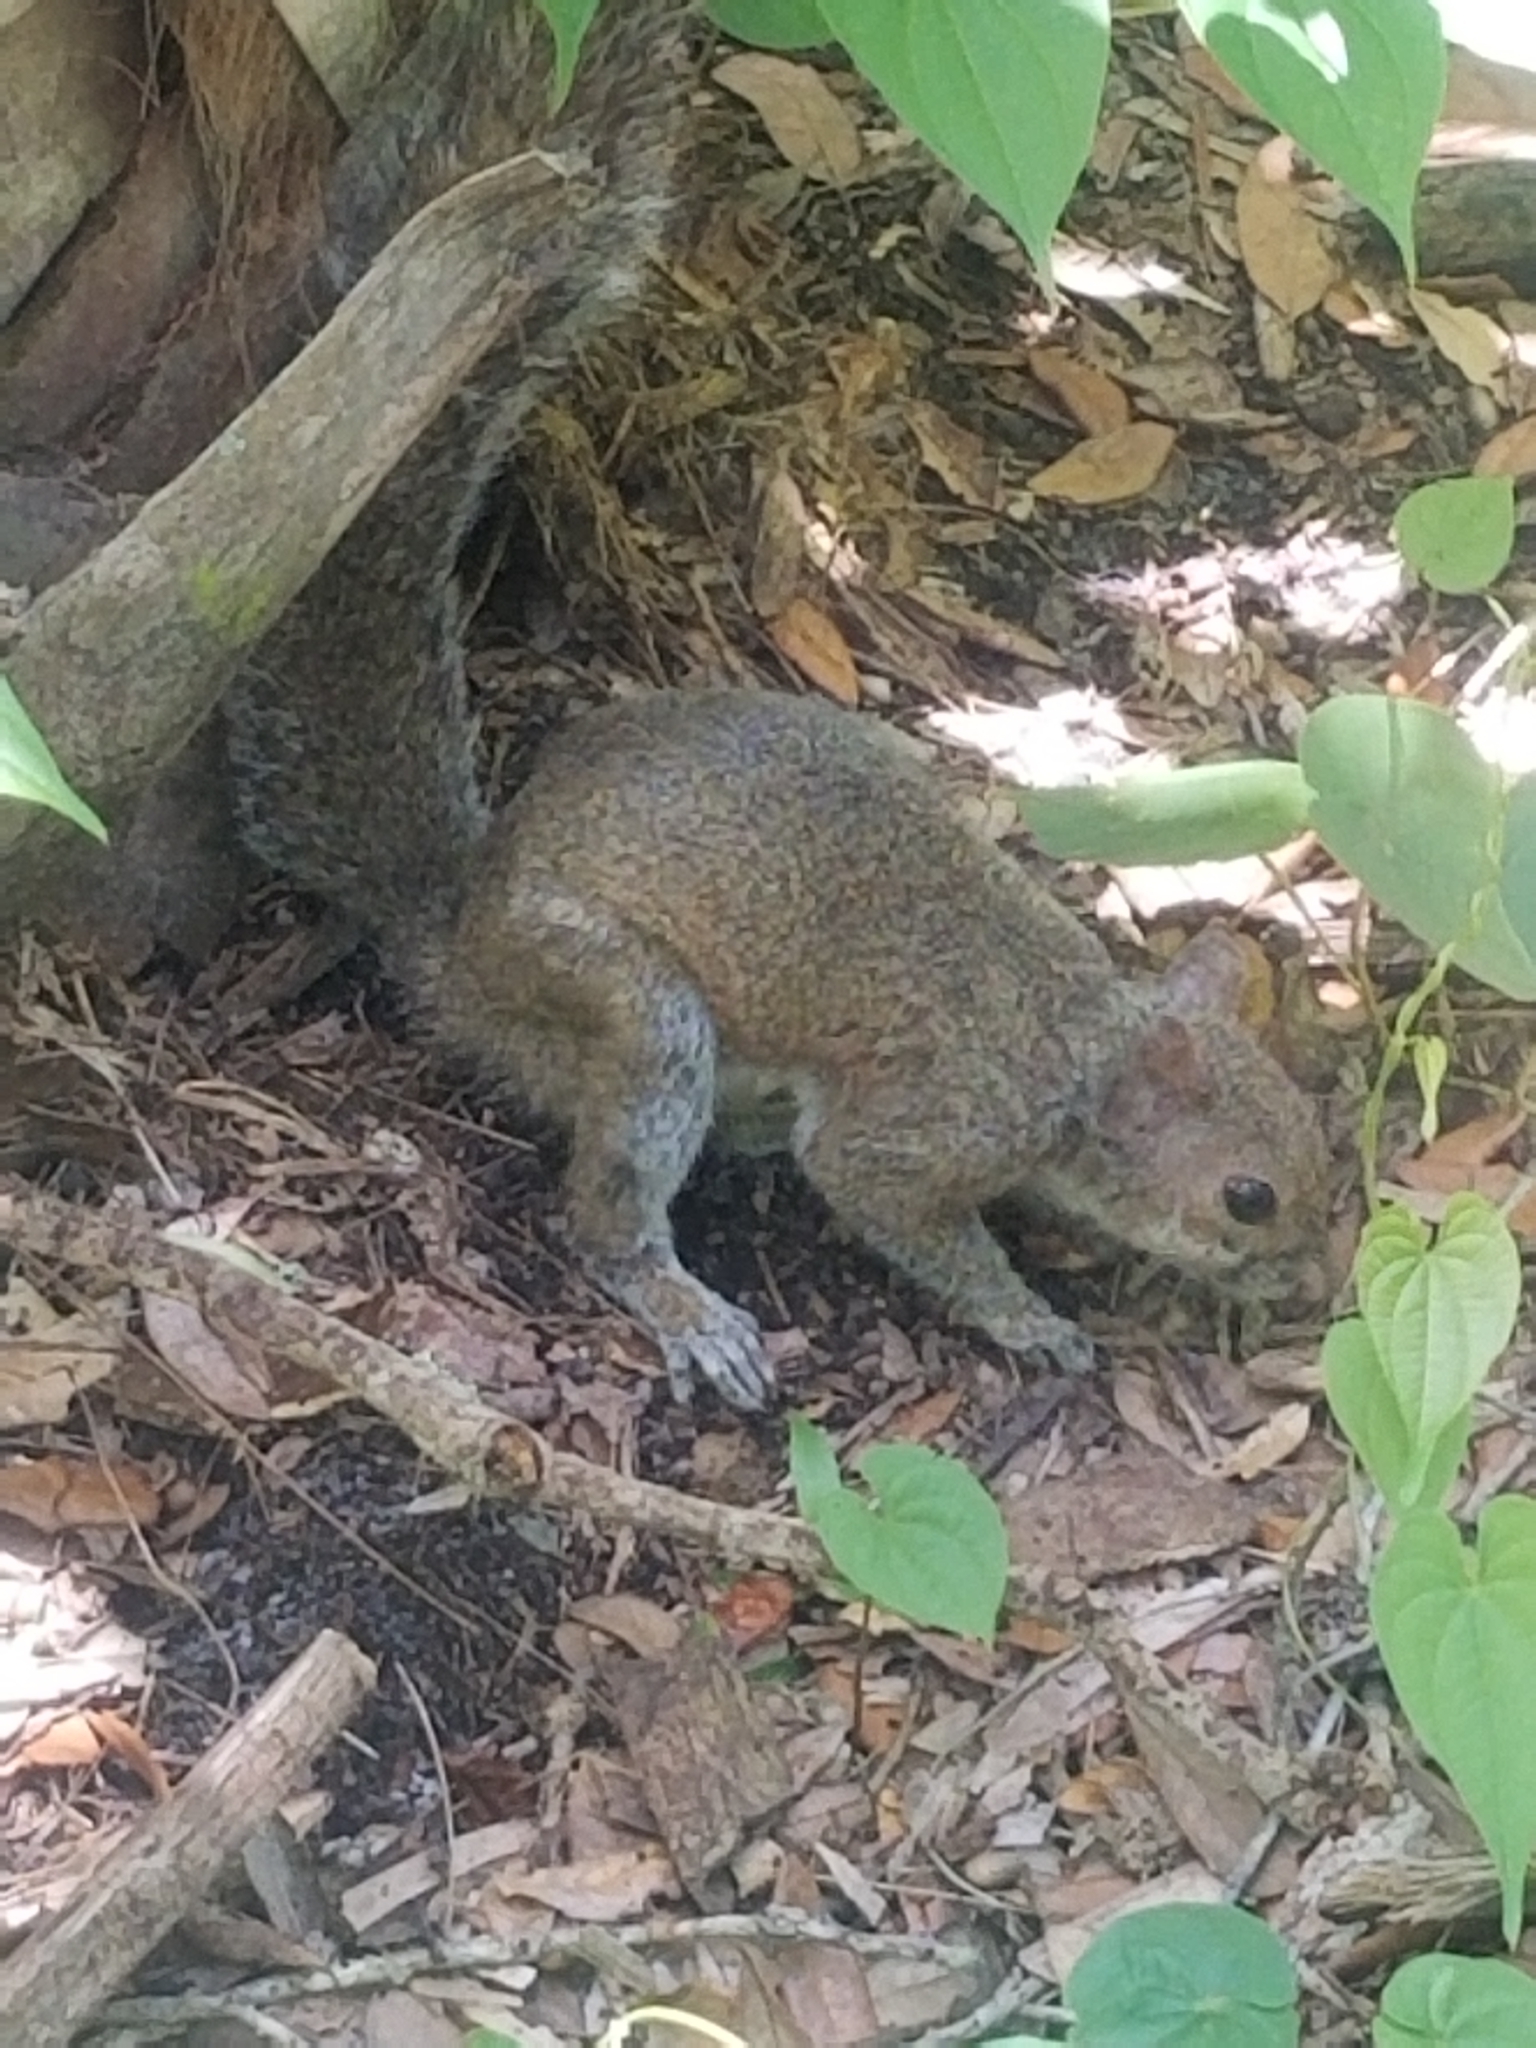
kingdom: Animalia
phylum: Chordata
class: Mammalia
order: Rodentia
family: Sciuridae
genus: Sciurus
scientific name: Sciurus carolinensis
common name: Eastern gray squirrel
